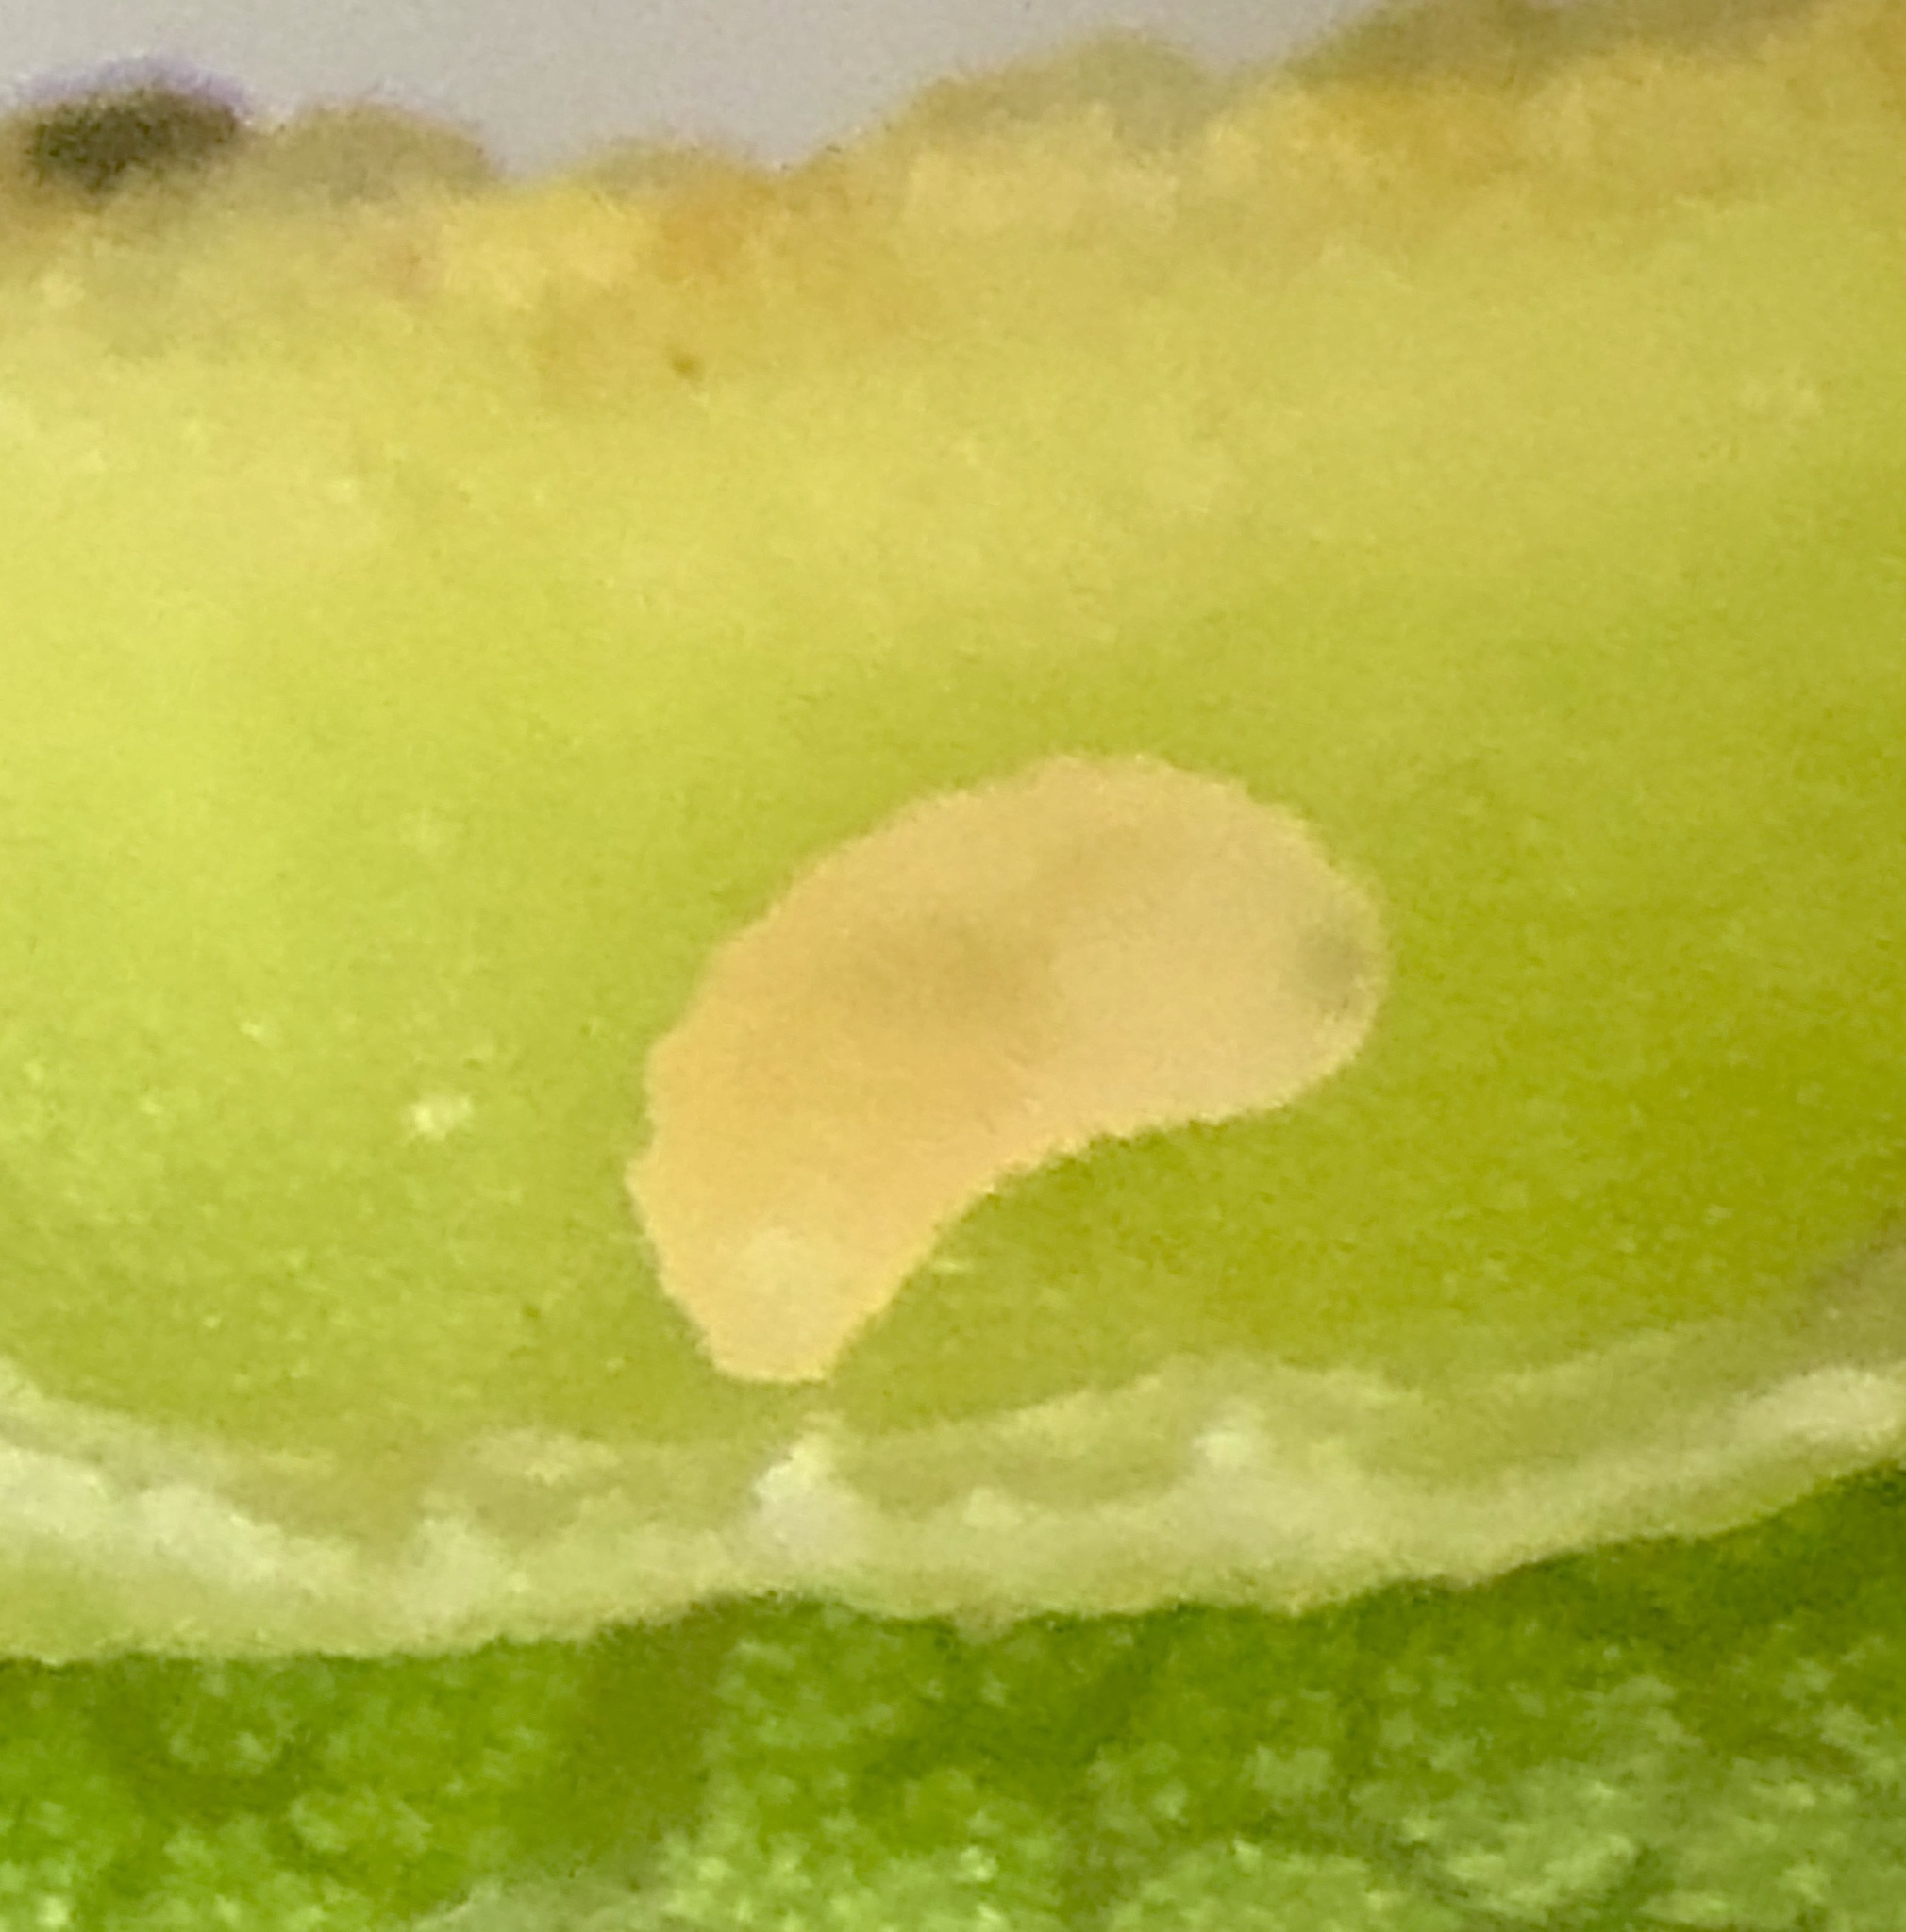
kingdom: Animalia
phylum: Arthropoda
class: Insecta
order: Diptera
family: Cecidomyiidae
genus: Macrodiplosis
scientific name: Macrodiplosis erubescens
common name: Marginal leaf fold gall midge
